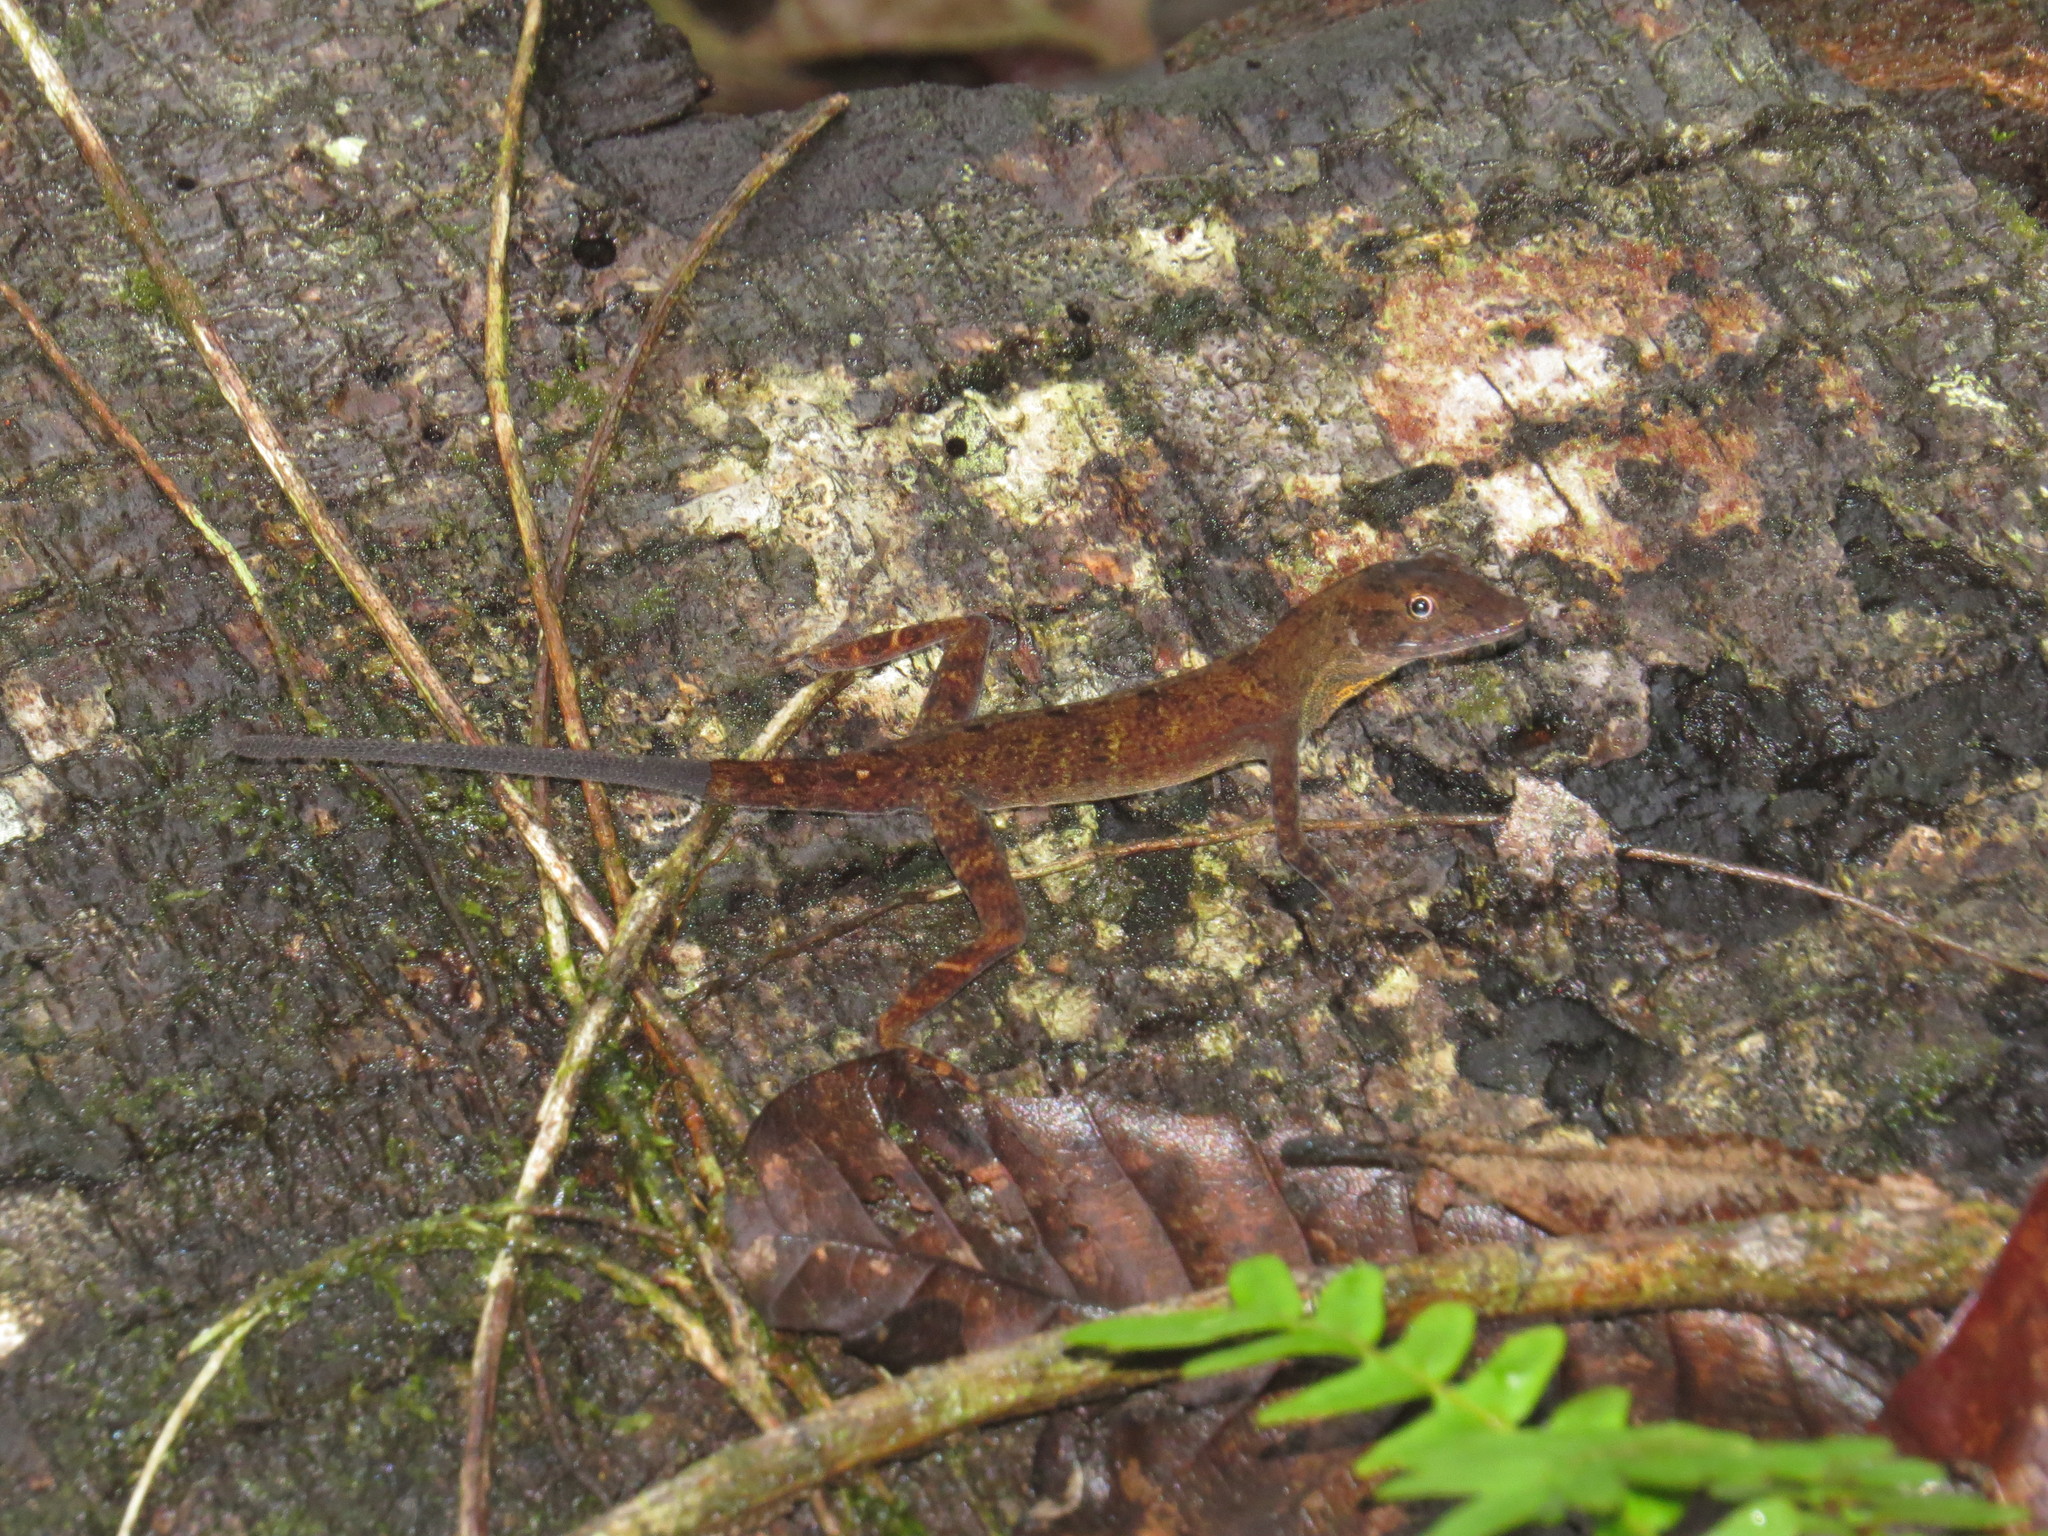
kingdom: Animalia
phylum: Chordata
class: Squamata
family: Dactyloidae
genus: Anolis
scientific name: Anolis osa
